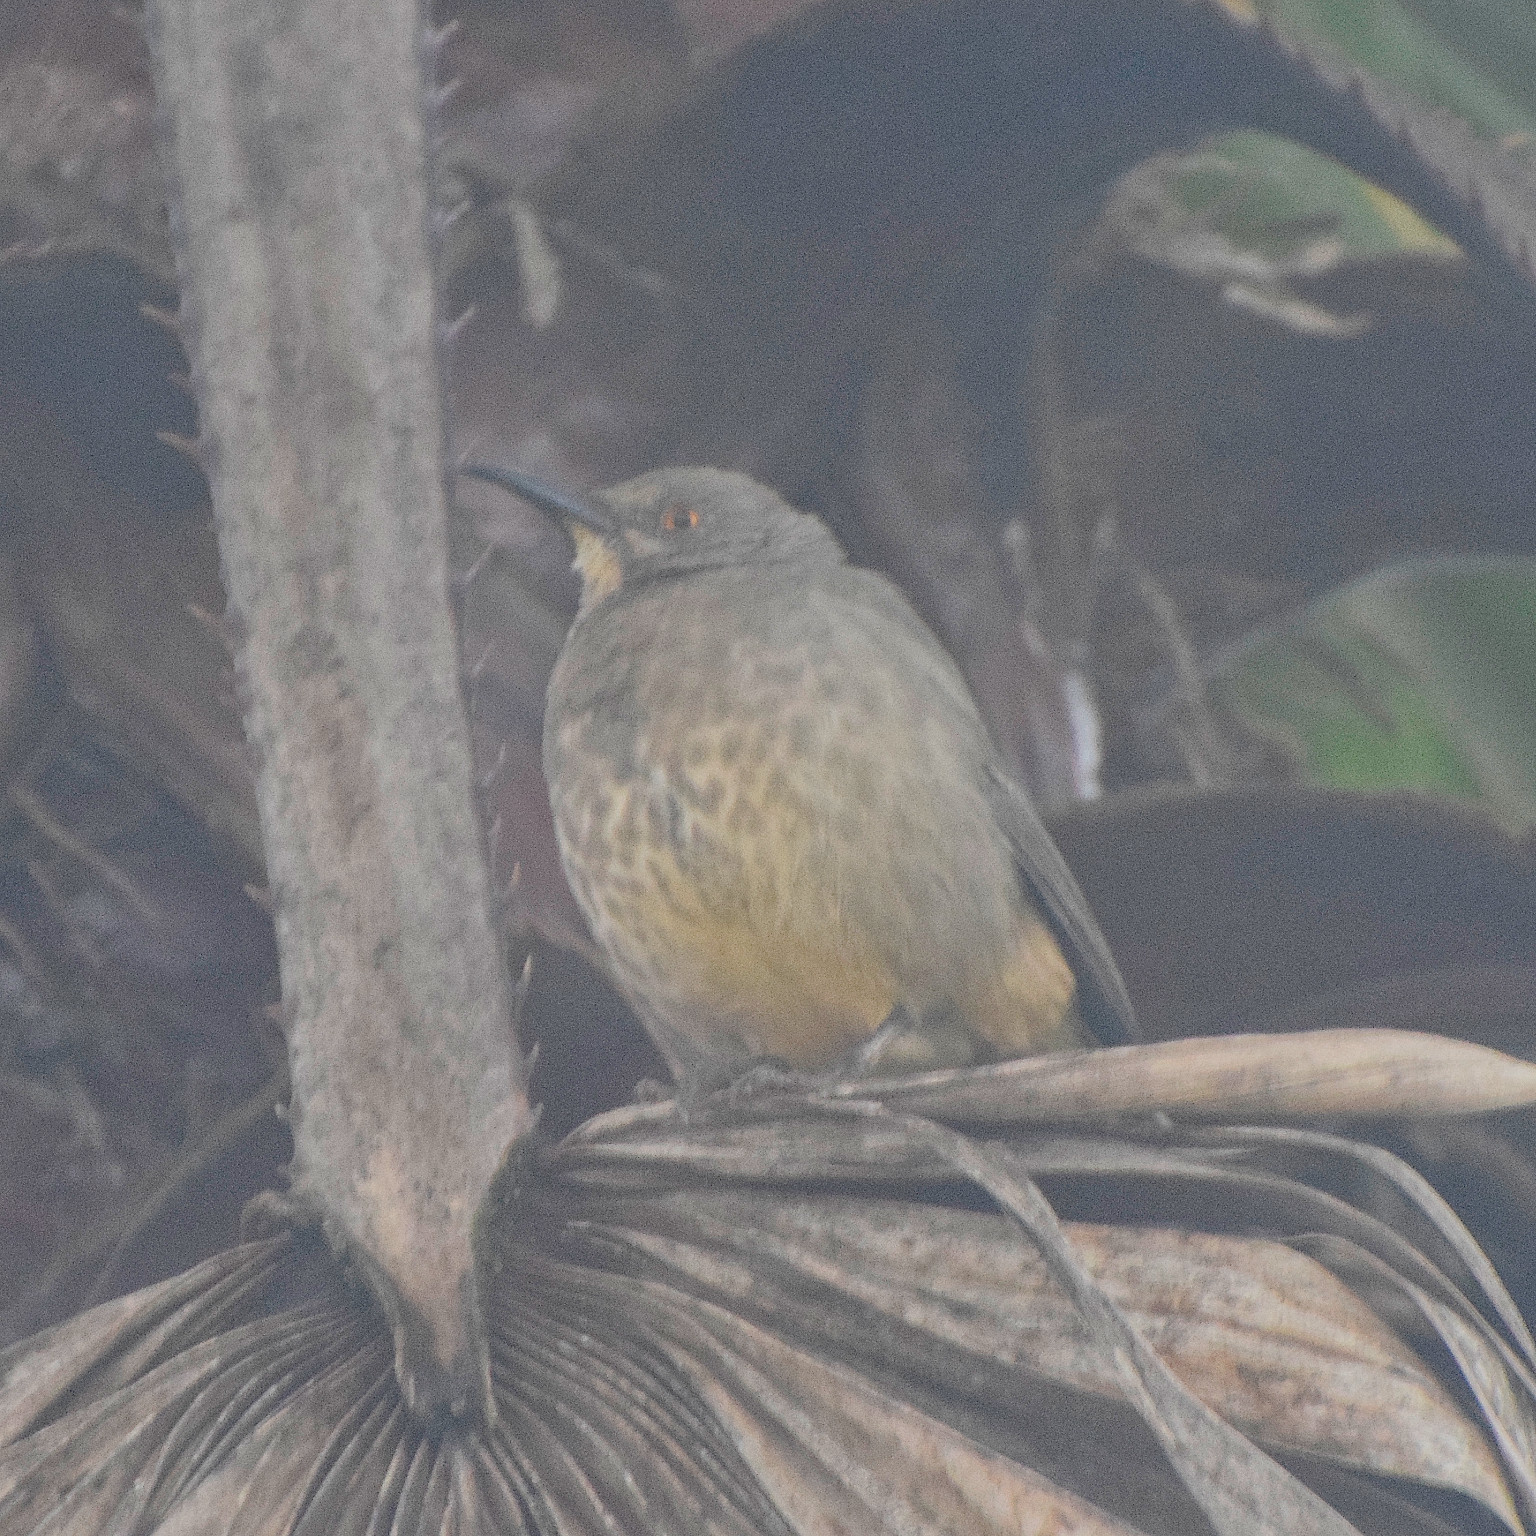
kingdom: Animalia
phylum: Chordata
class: Aves
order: Passeriformes
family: Mimidae
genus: Toxostoma
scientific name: Toxostoma curvirostre
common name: Curve-billed thrasher
